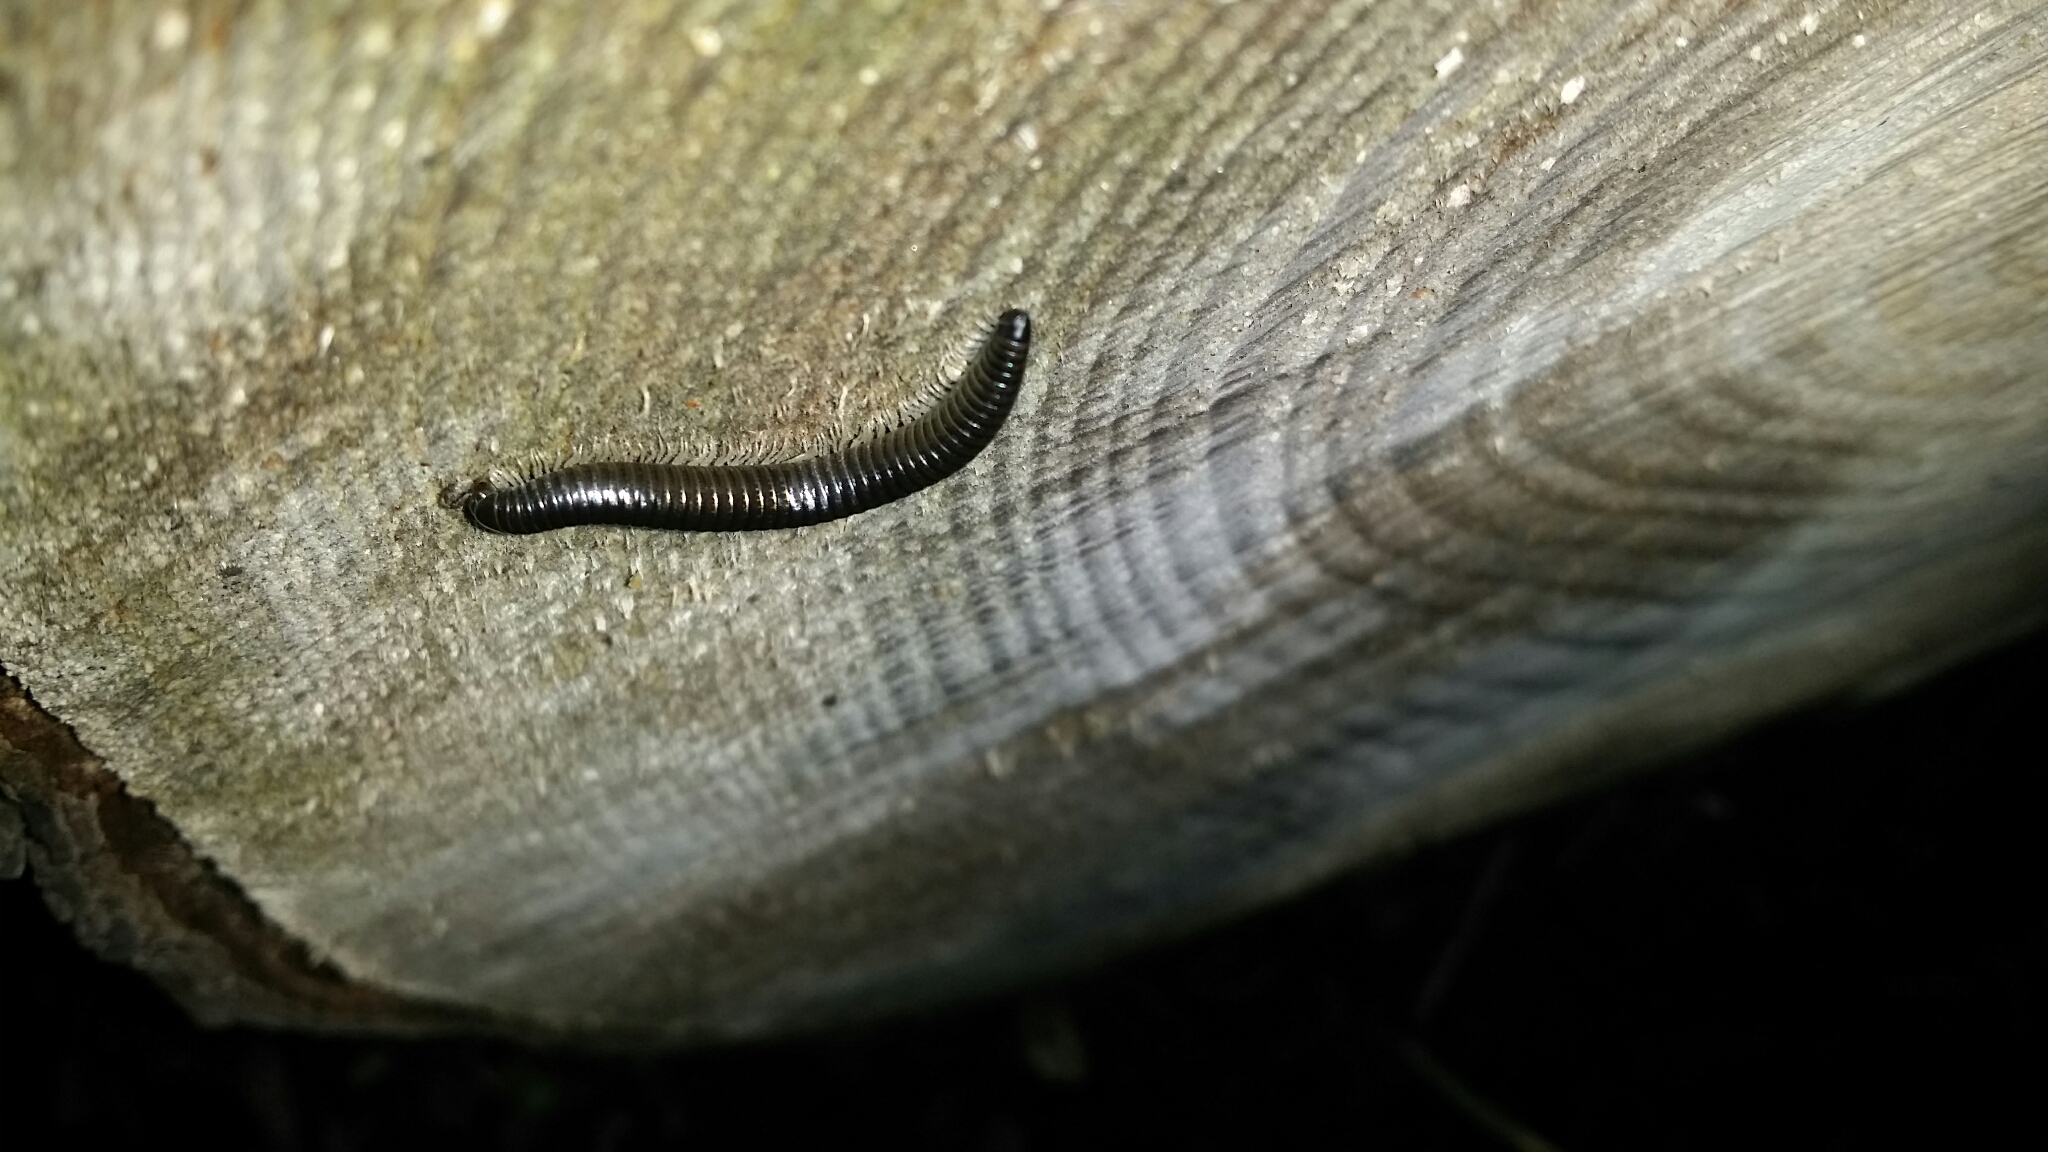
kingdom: Animalia
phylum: Arthropoda
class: Diplopoda
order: Julida
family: Julidae
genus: Ommatoiulus
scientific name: Ommatoiulus moreleti
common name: Portuguese millipede
